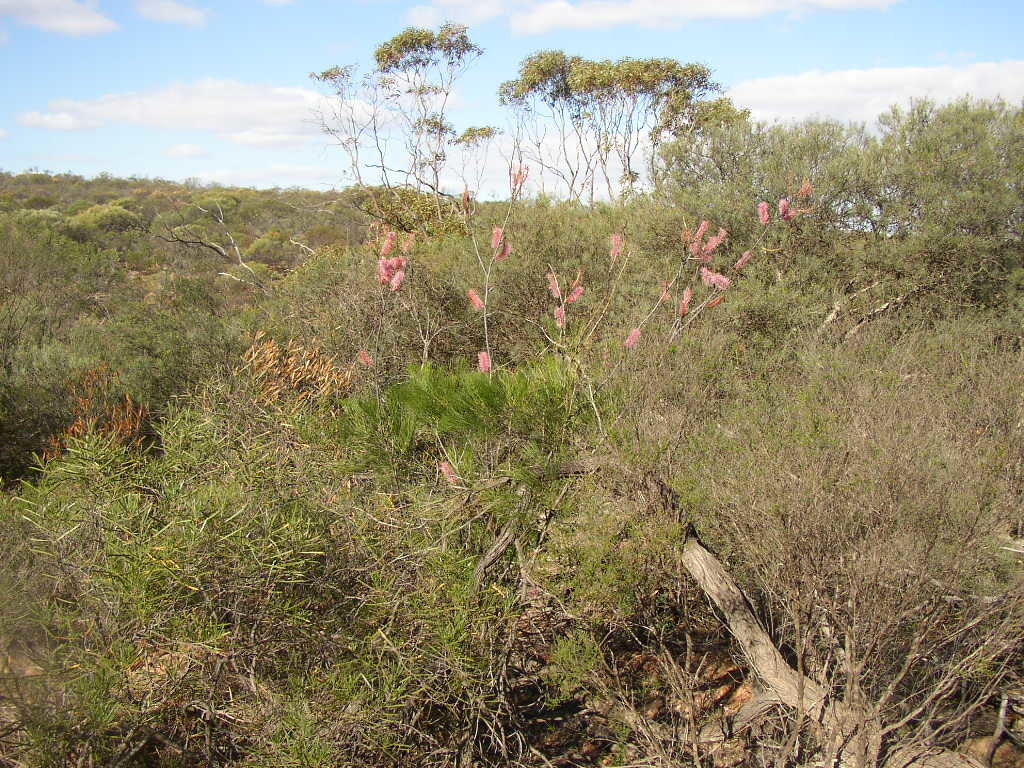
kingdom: Plantae
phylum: Tracheophyta
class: Magnoliopsida
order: Proteales
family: Proteaceae
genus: Grevillea
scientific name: Grevillea petrophiloides
